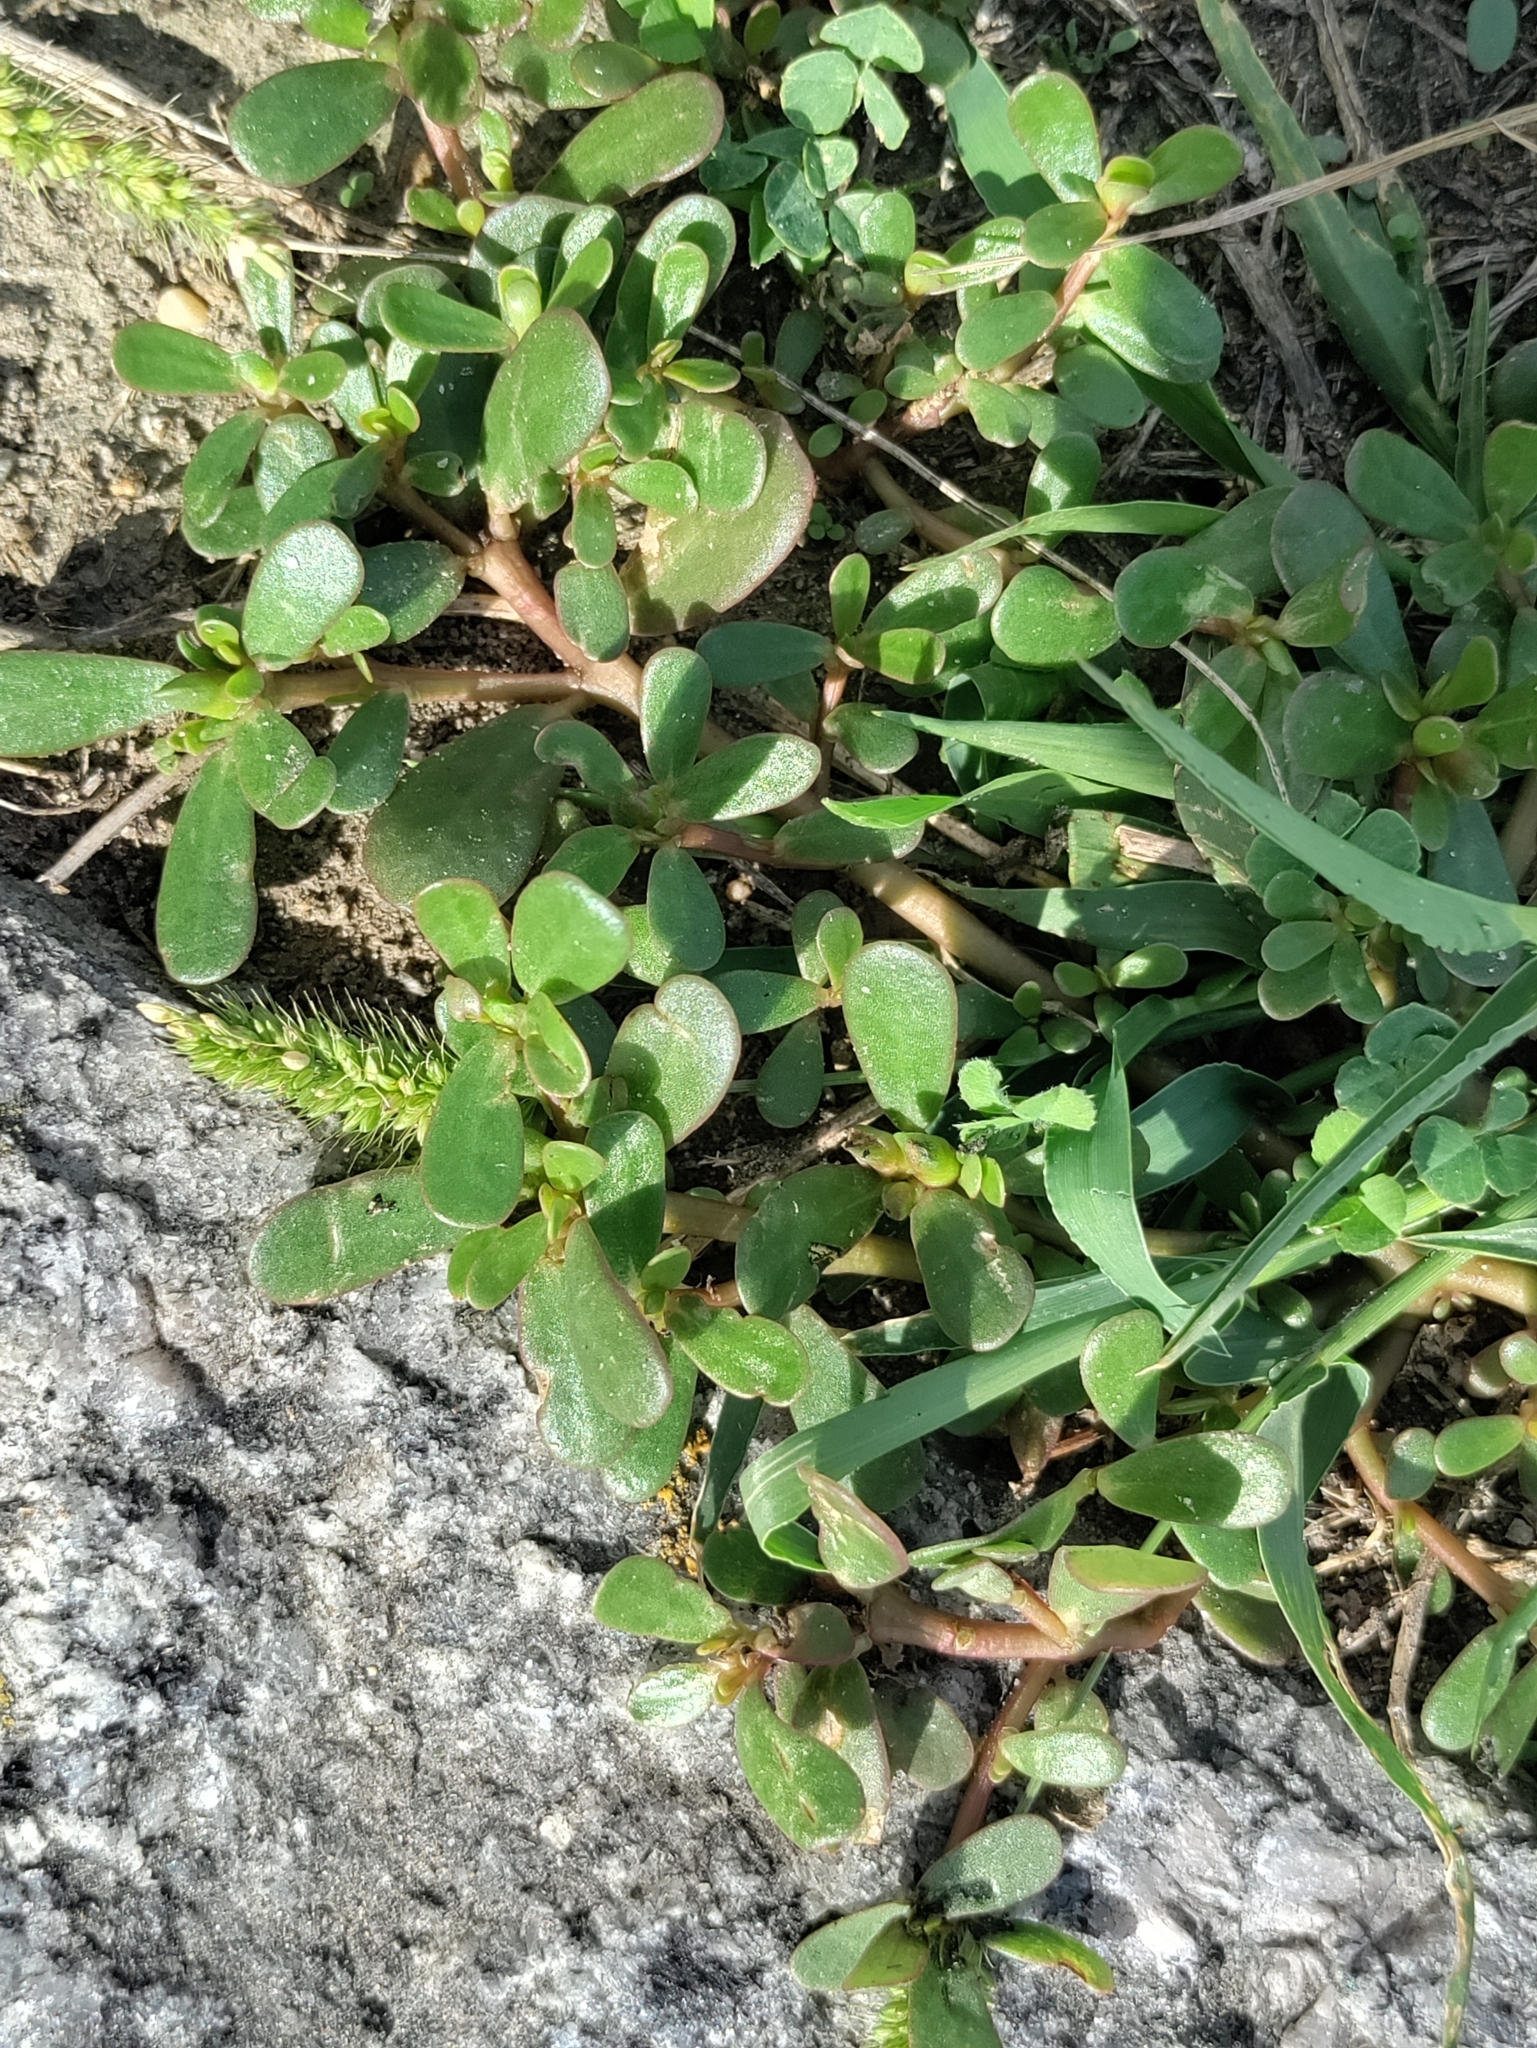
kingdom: Plantae
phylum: Tracheophyta
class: Magnoliopsida
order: Caryophyllales
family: Portulacaceae
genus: Portulaca
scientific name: Portulaca oleracea
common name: Common purslane
